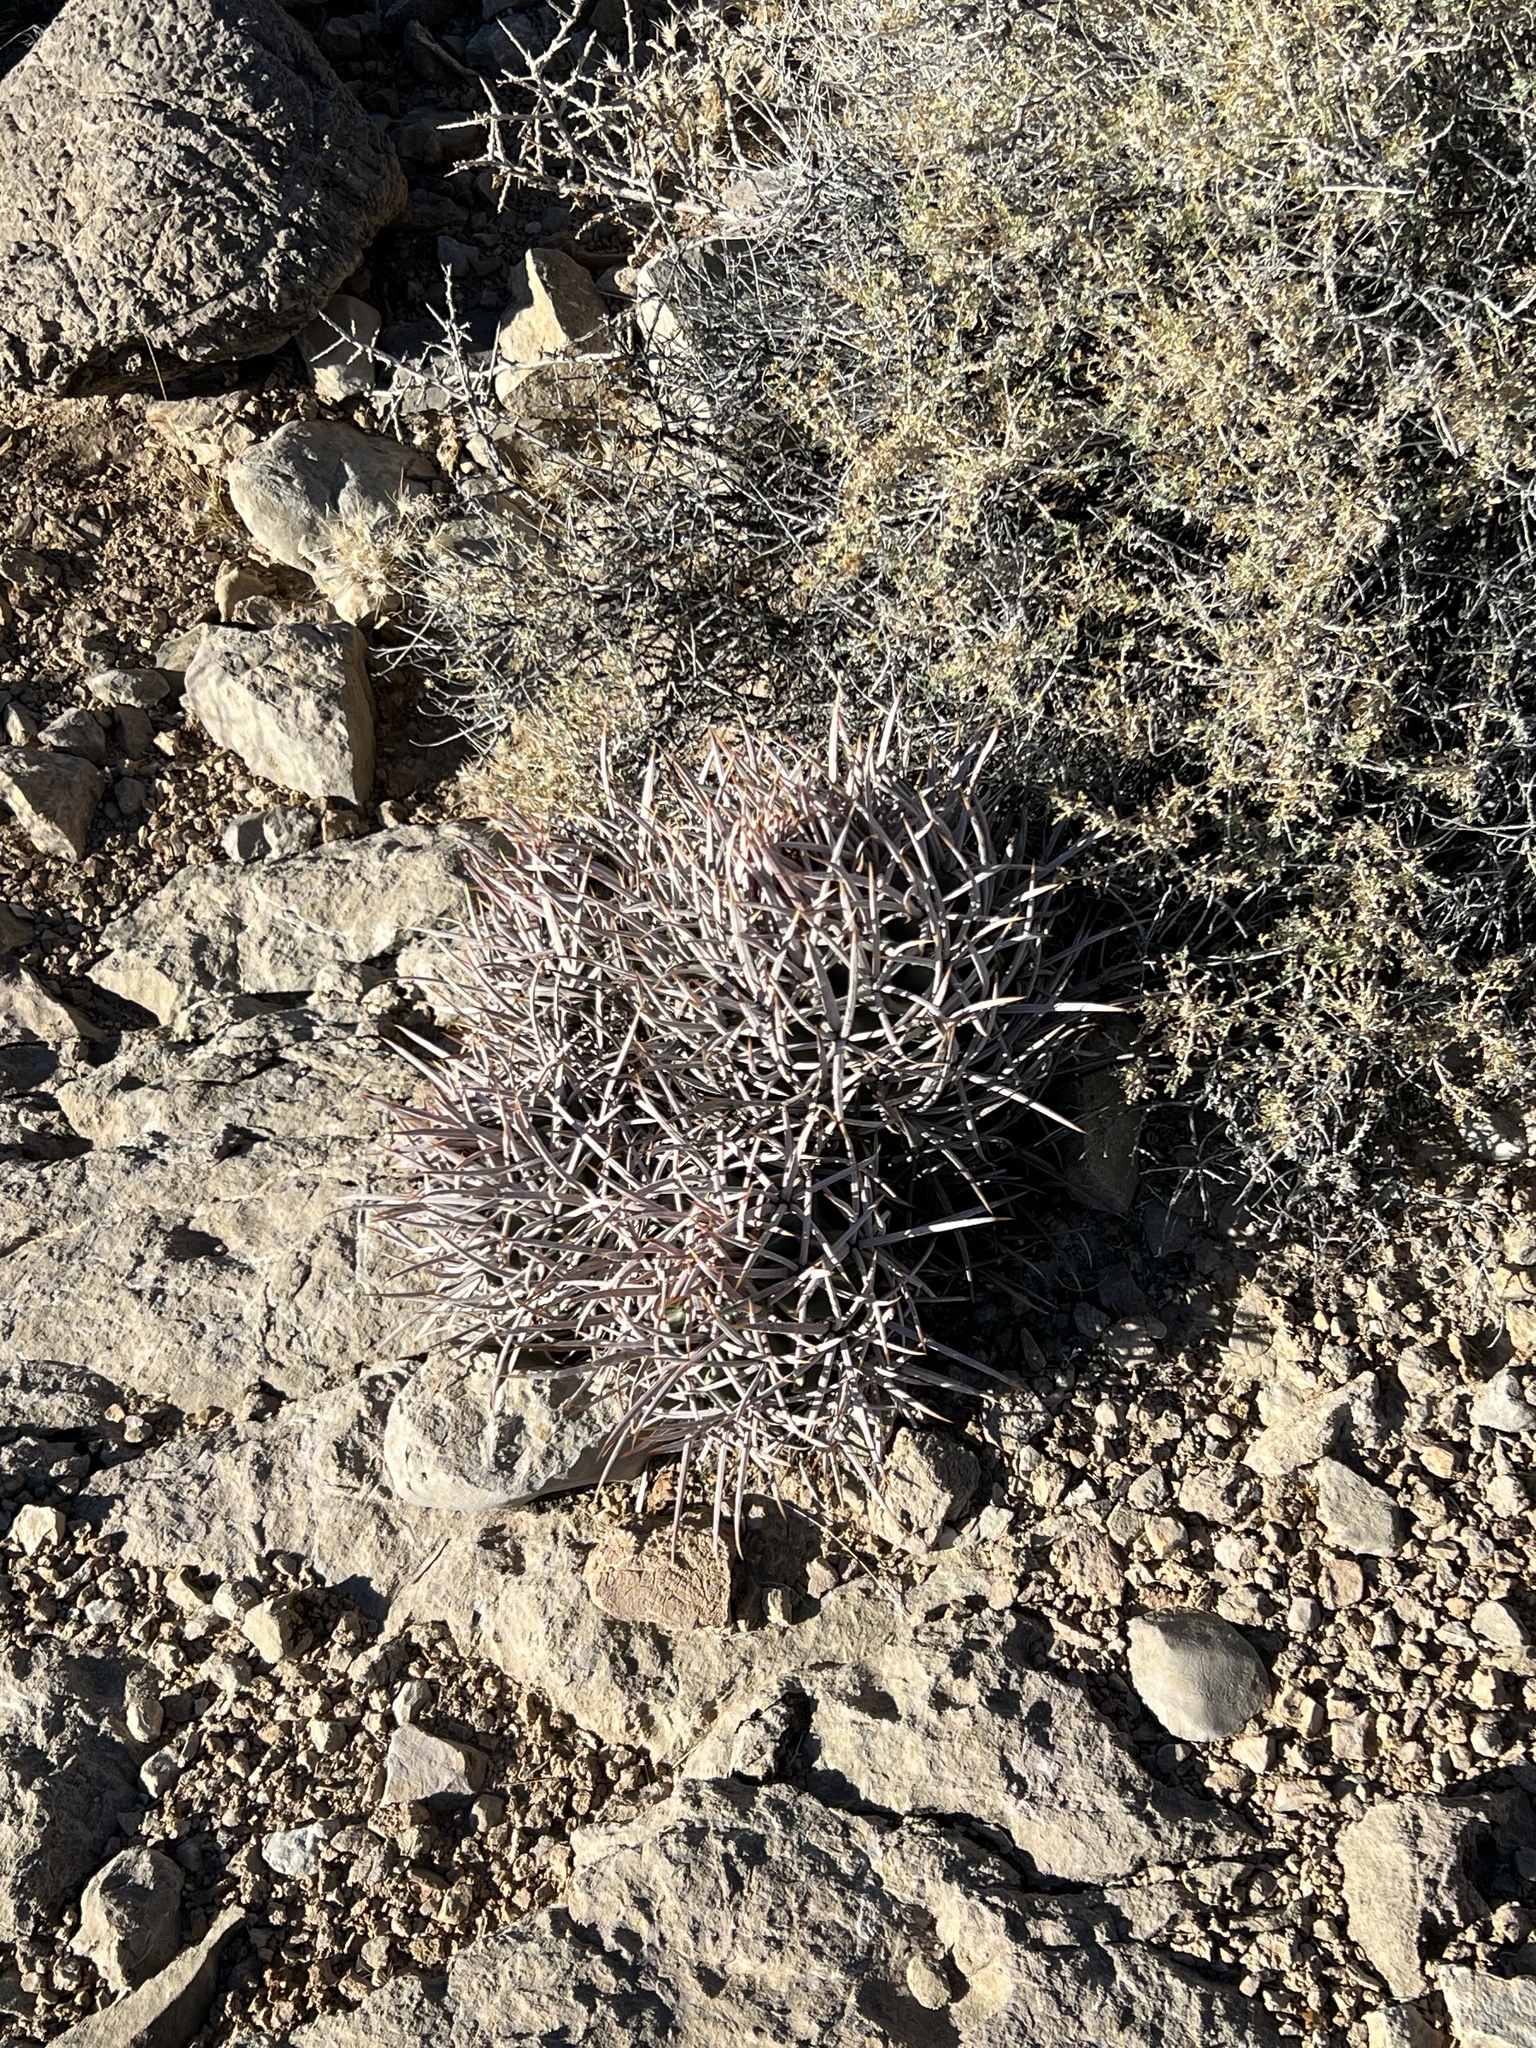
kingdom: Plantae
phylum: Tracheophyta
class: Magnoliopsida
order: Caryophyllales
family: Cactaceae
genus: Echinocactus
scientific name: Echinocactus polycephalus
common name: Cottontop cactus
